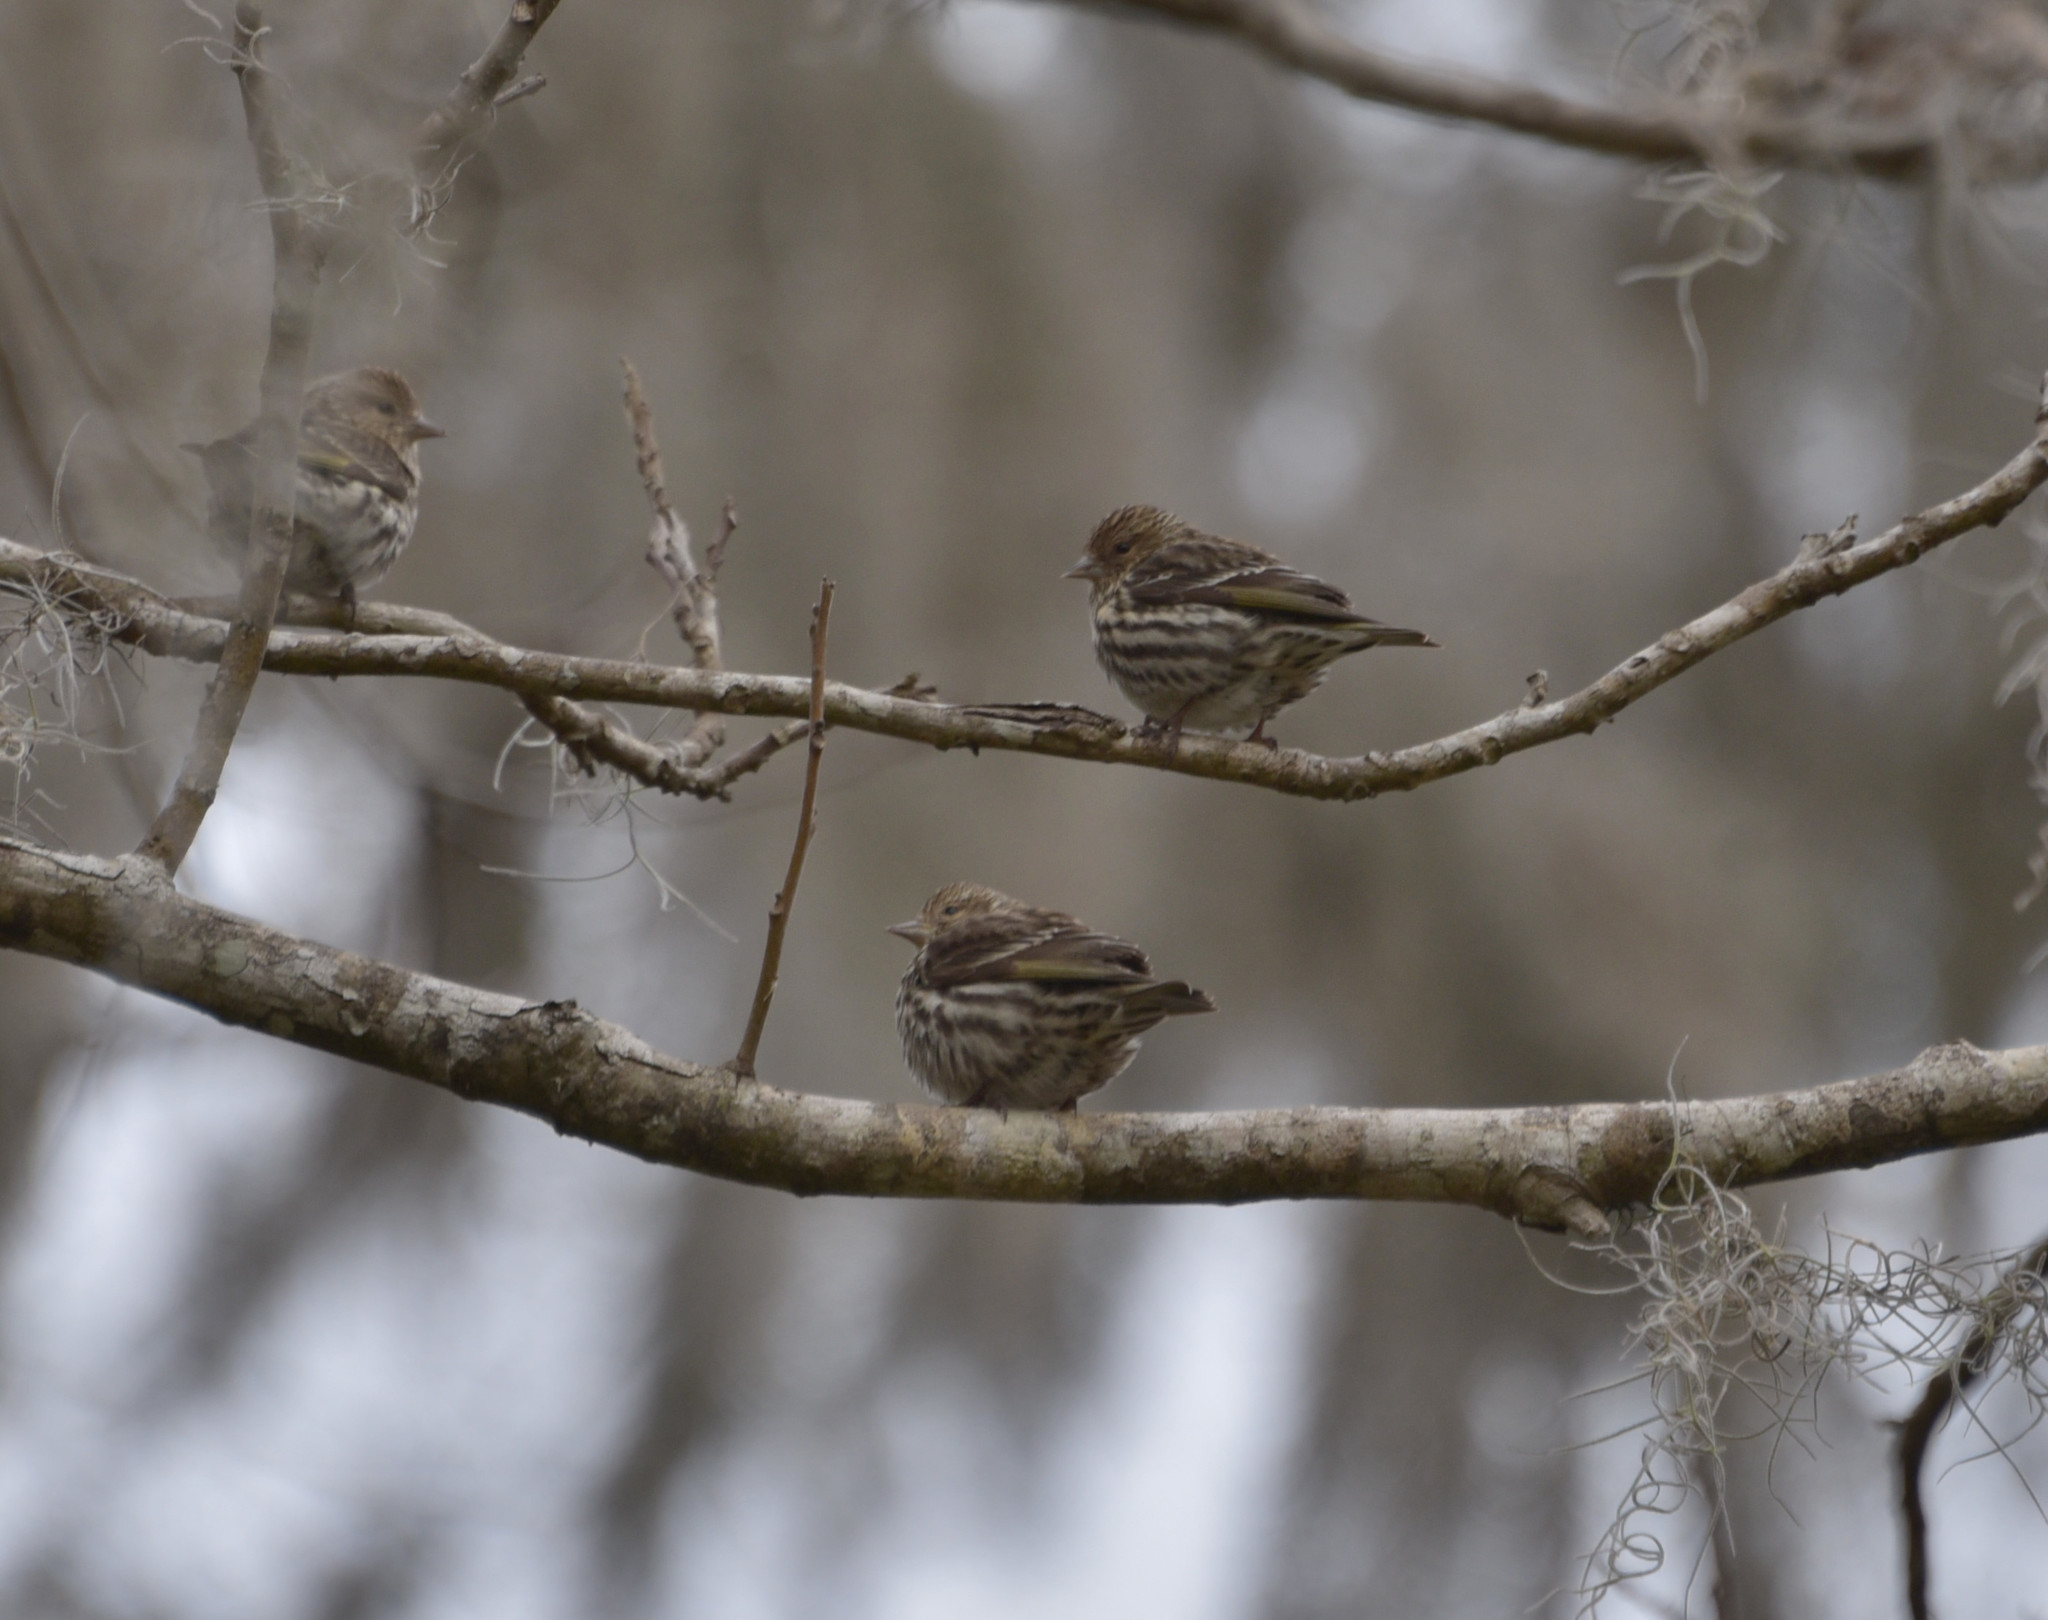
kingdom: Animalia
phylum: Chordata
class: Aves
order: Passeriformes
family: Fringillidae
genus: Spinus
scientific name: Spinus pinus
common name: Pine siskin
